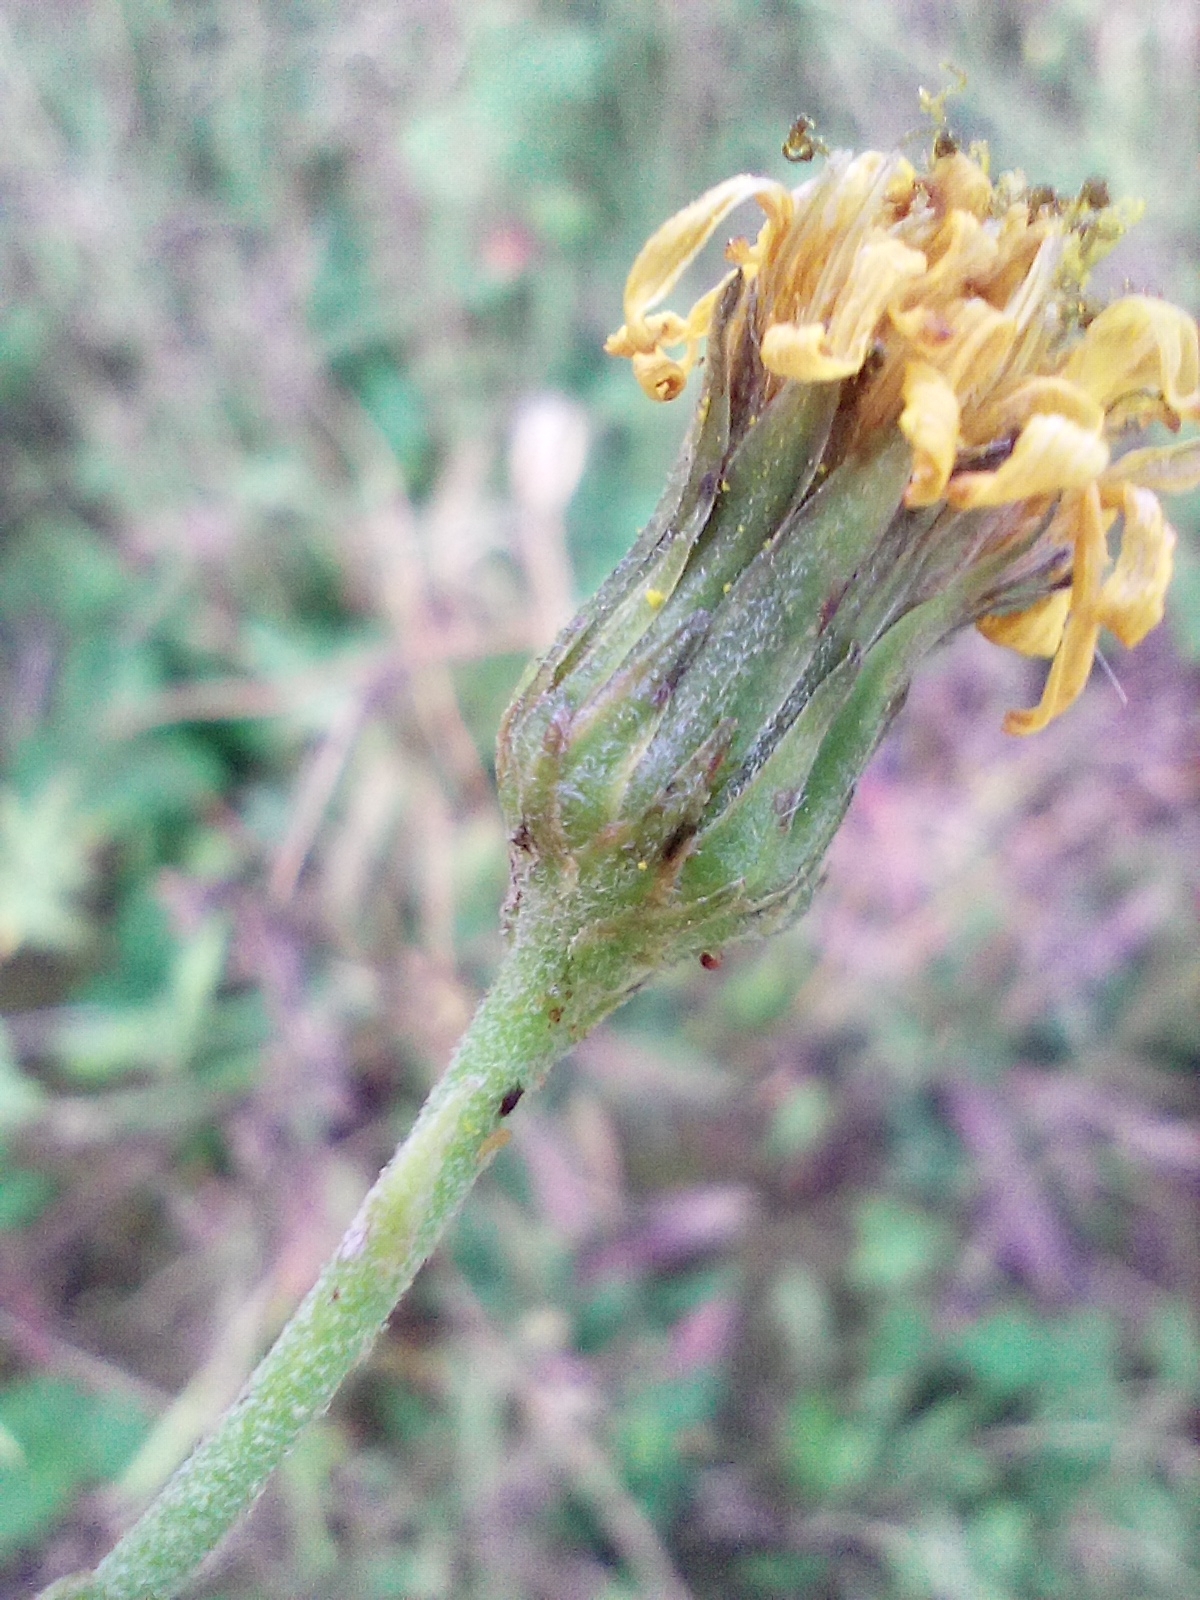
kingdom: Plantae
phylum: Tracheophyta
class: Magnoliopsida
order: Asterales
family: Asteraceae
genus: Hieracium
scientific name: Hieracium sabaudum
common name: New england hawkweed
